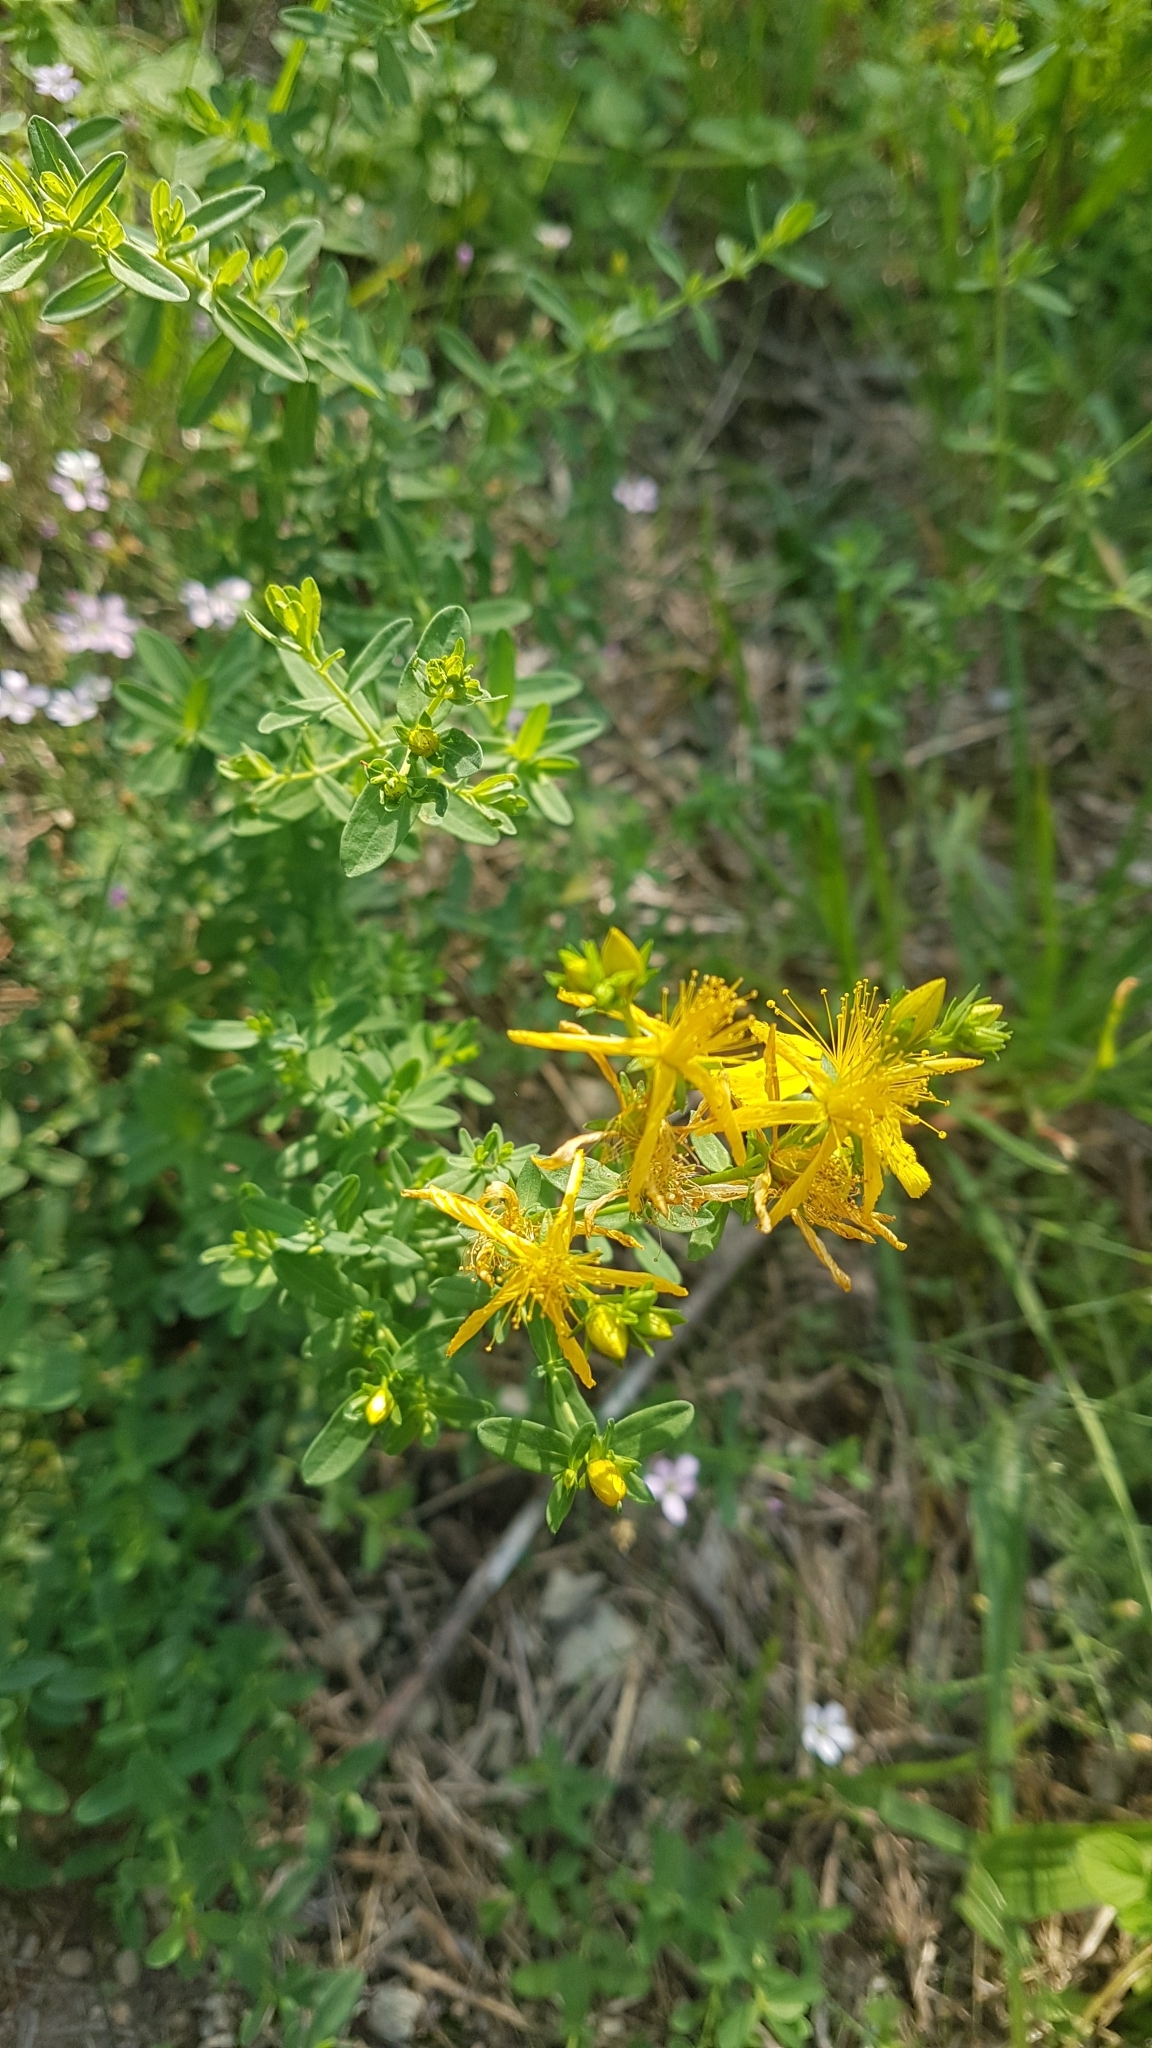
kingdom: Plantae
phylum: Tracheophyta
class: Magnoliopsida
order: Malpighiales
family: Hypericaceae
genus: Hypericum
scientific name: Hypericum perforatum
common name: Common st. johnswort
